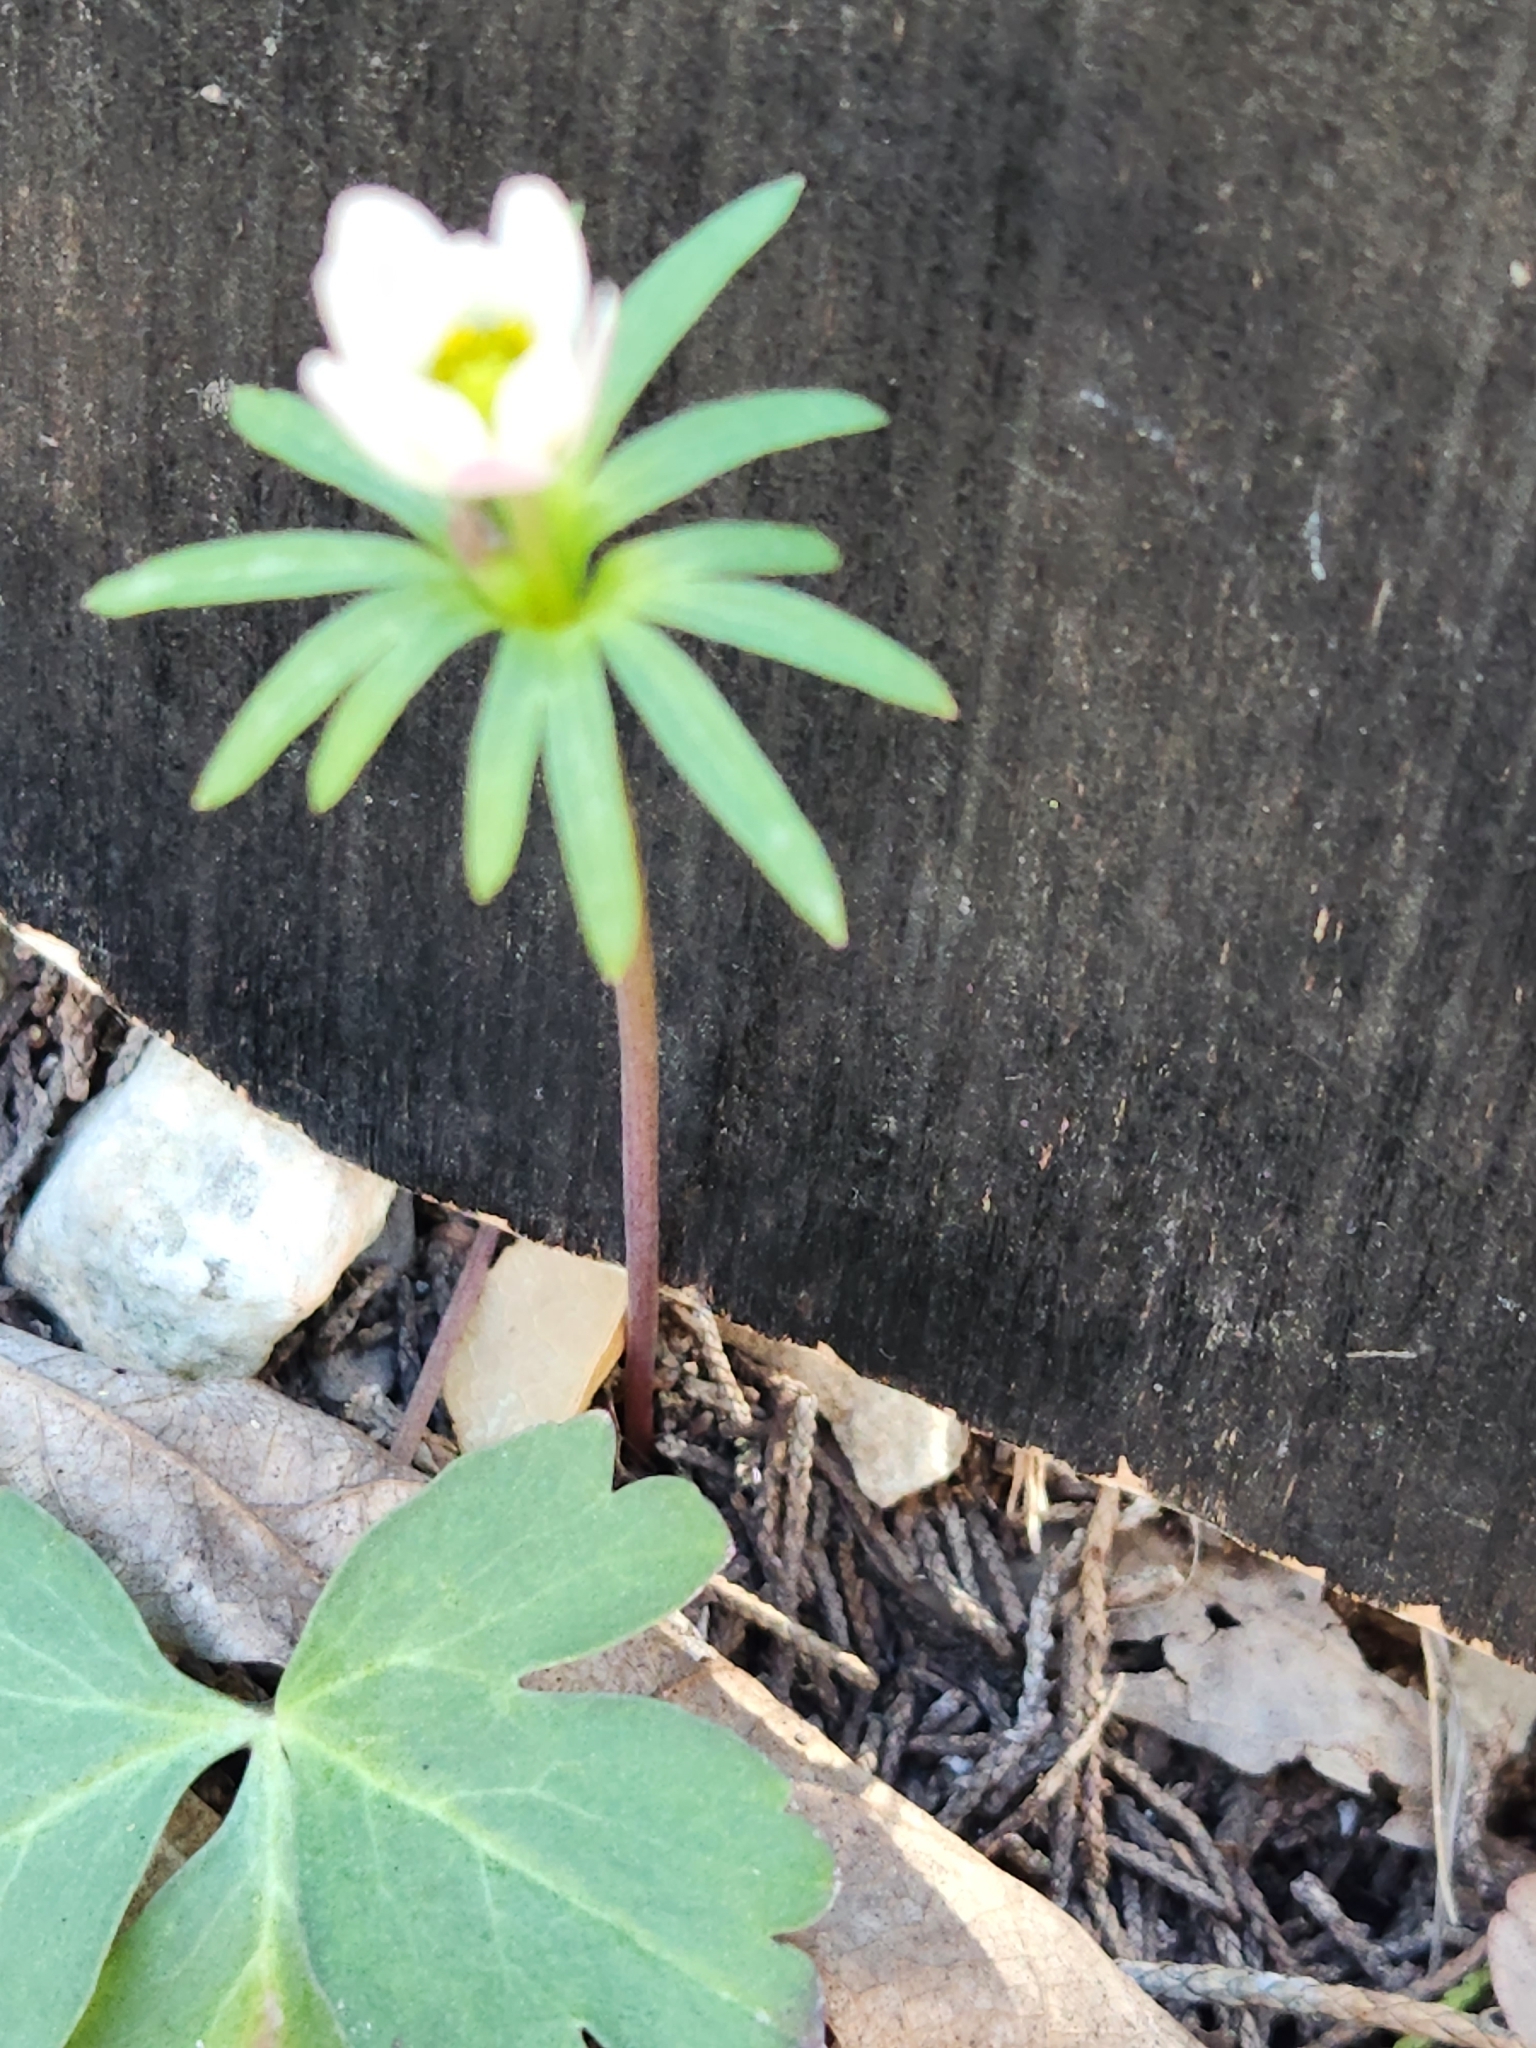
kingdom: Plantae
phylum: Tracheophyta
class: Magnoliopsida
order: Ranunculales
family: Ranunculaceae
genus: Anemone
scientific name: Anemone edwardsiana
